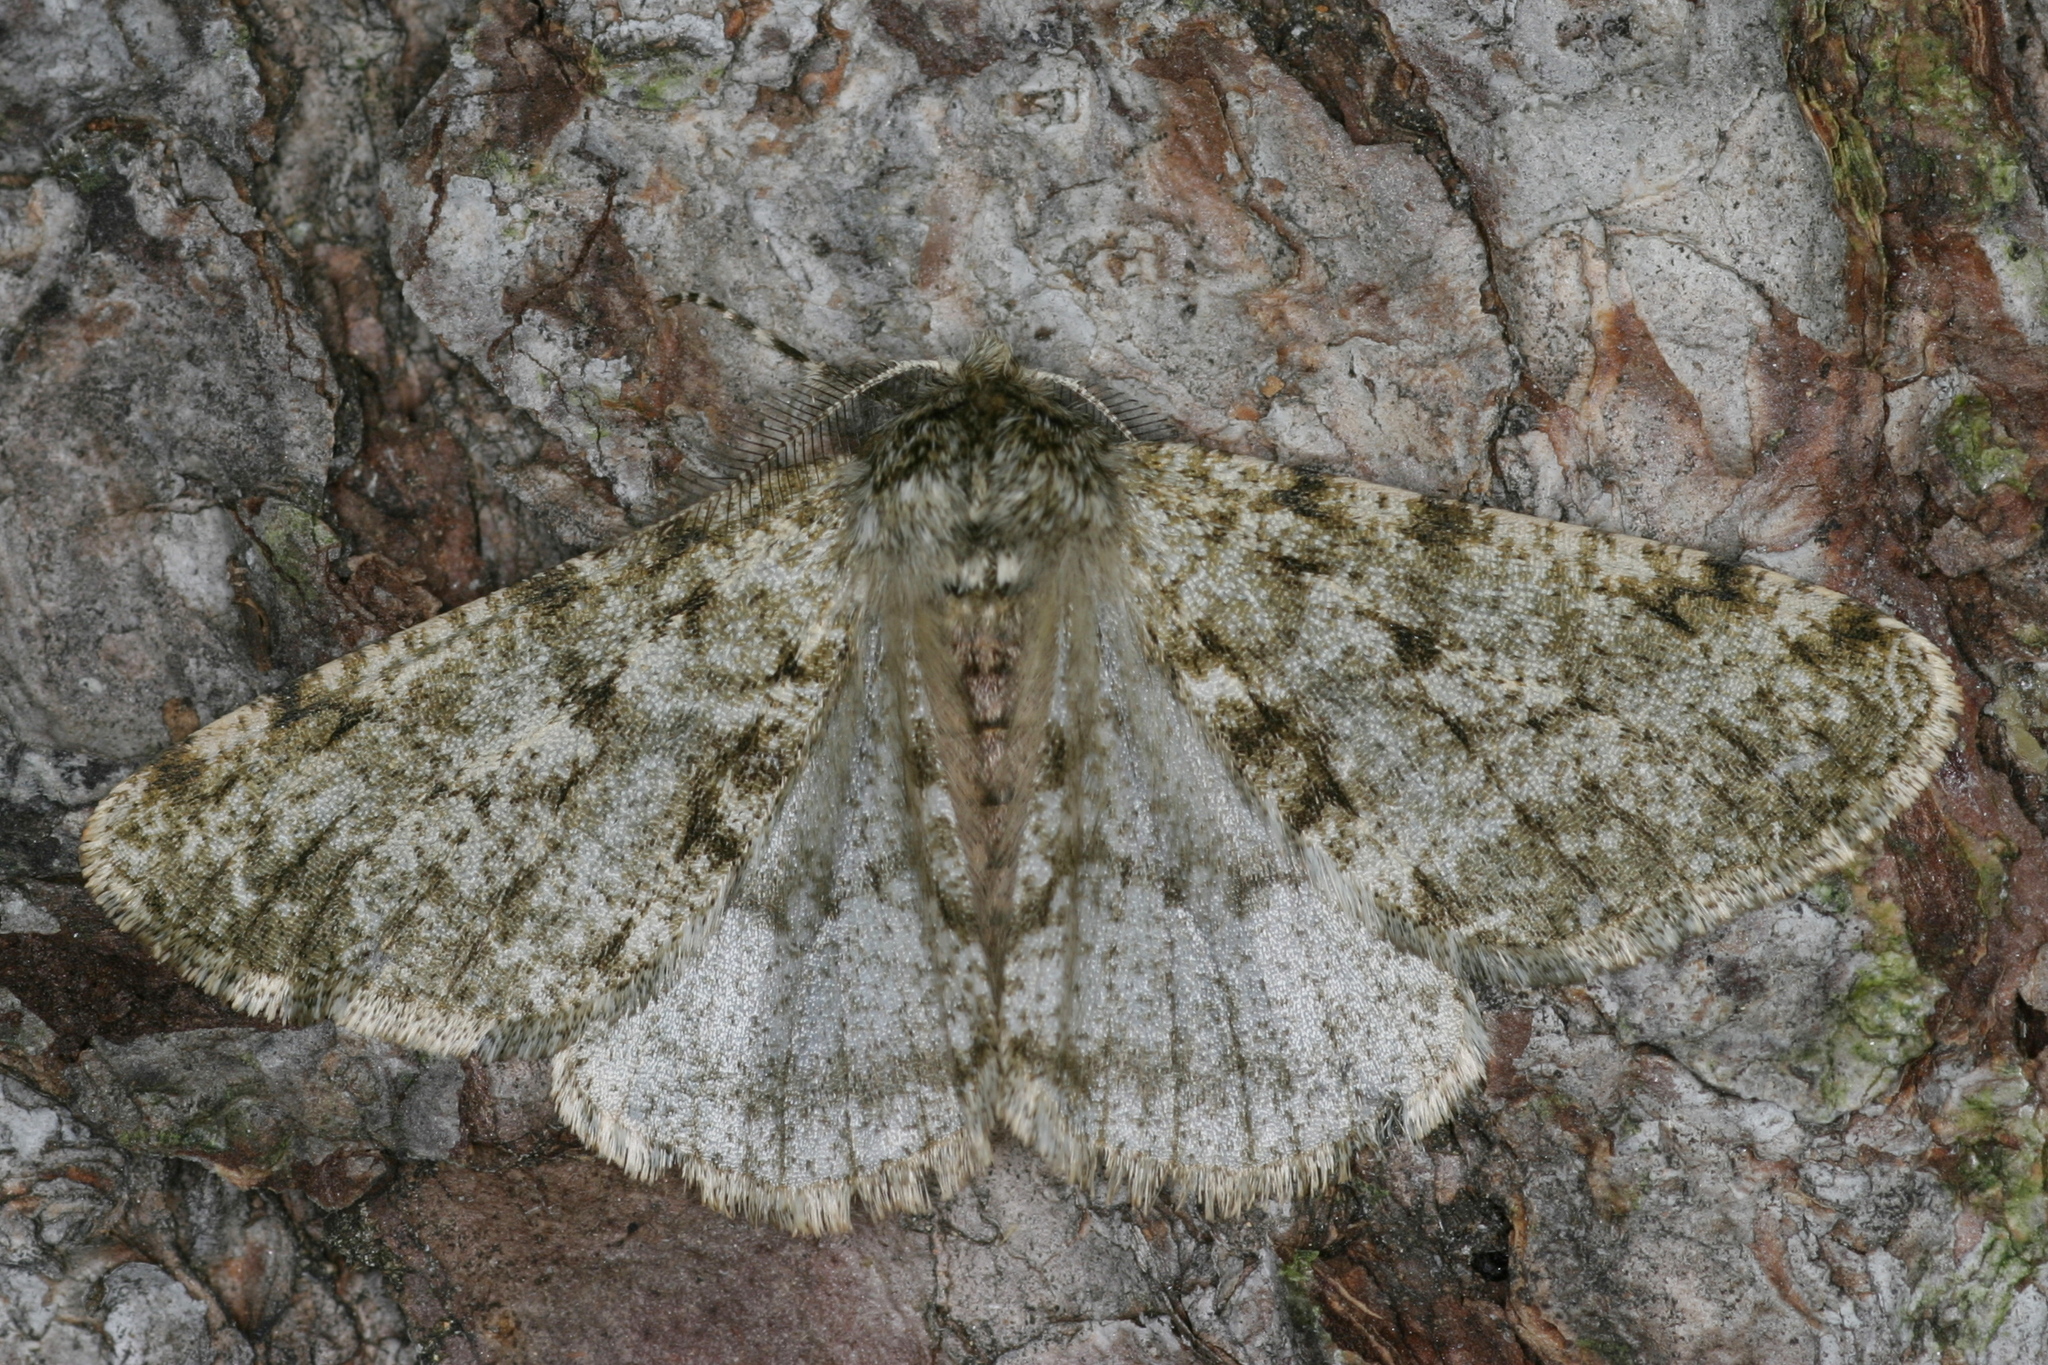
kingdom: Animalia
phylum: Arthropoda
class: Insecta
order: Lepidoptera
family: Geometridae
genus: Phigalia
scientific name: Phigalia pilosaria
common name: Pale brindled beauty
